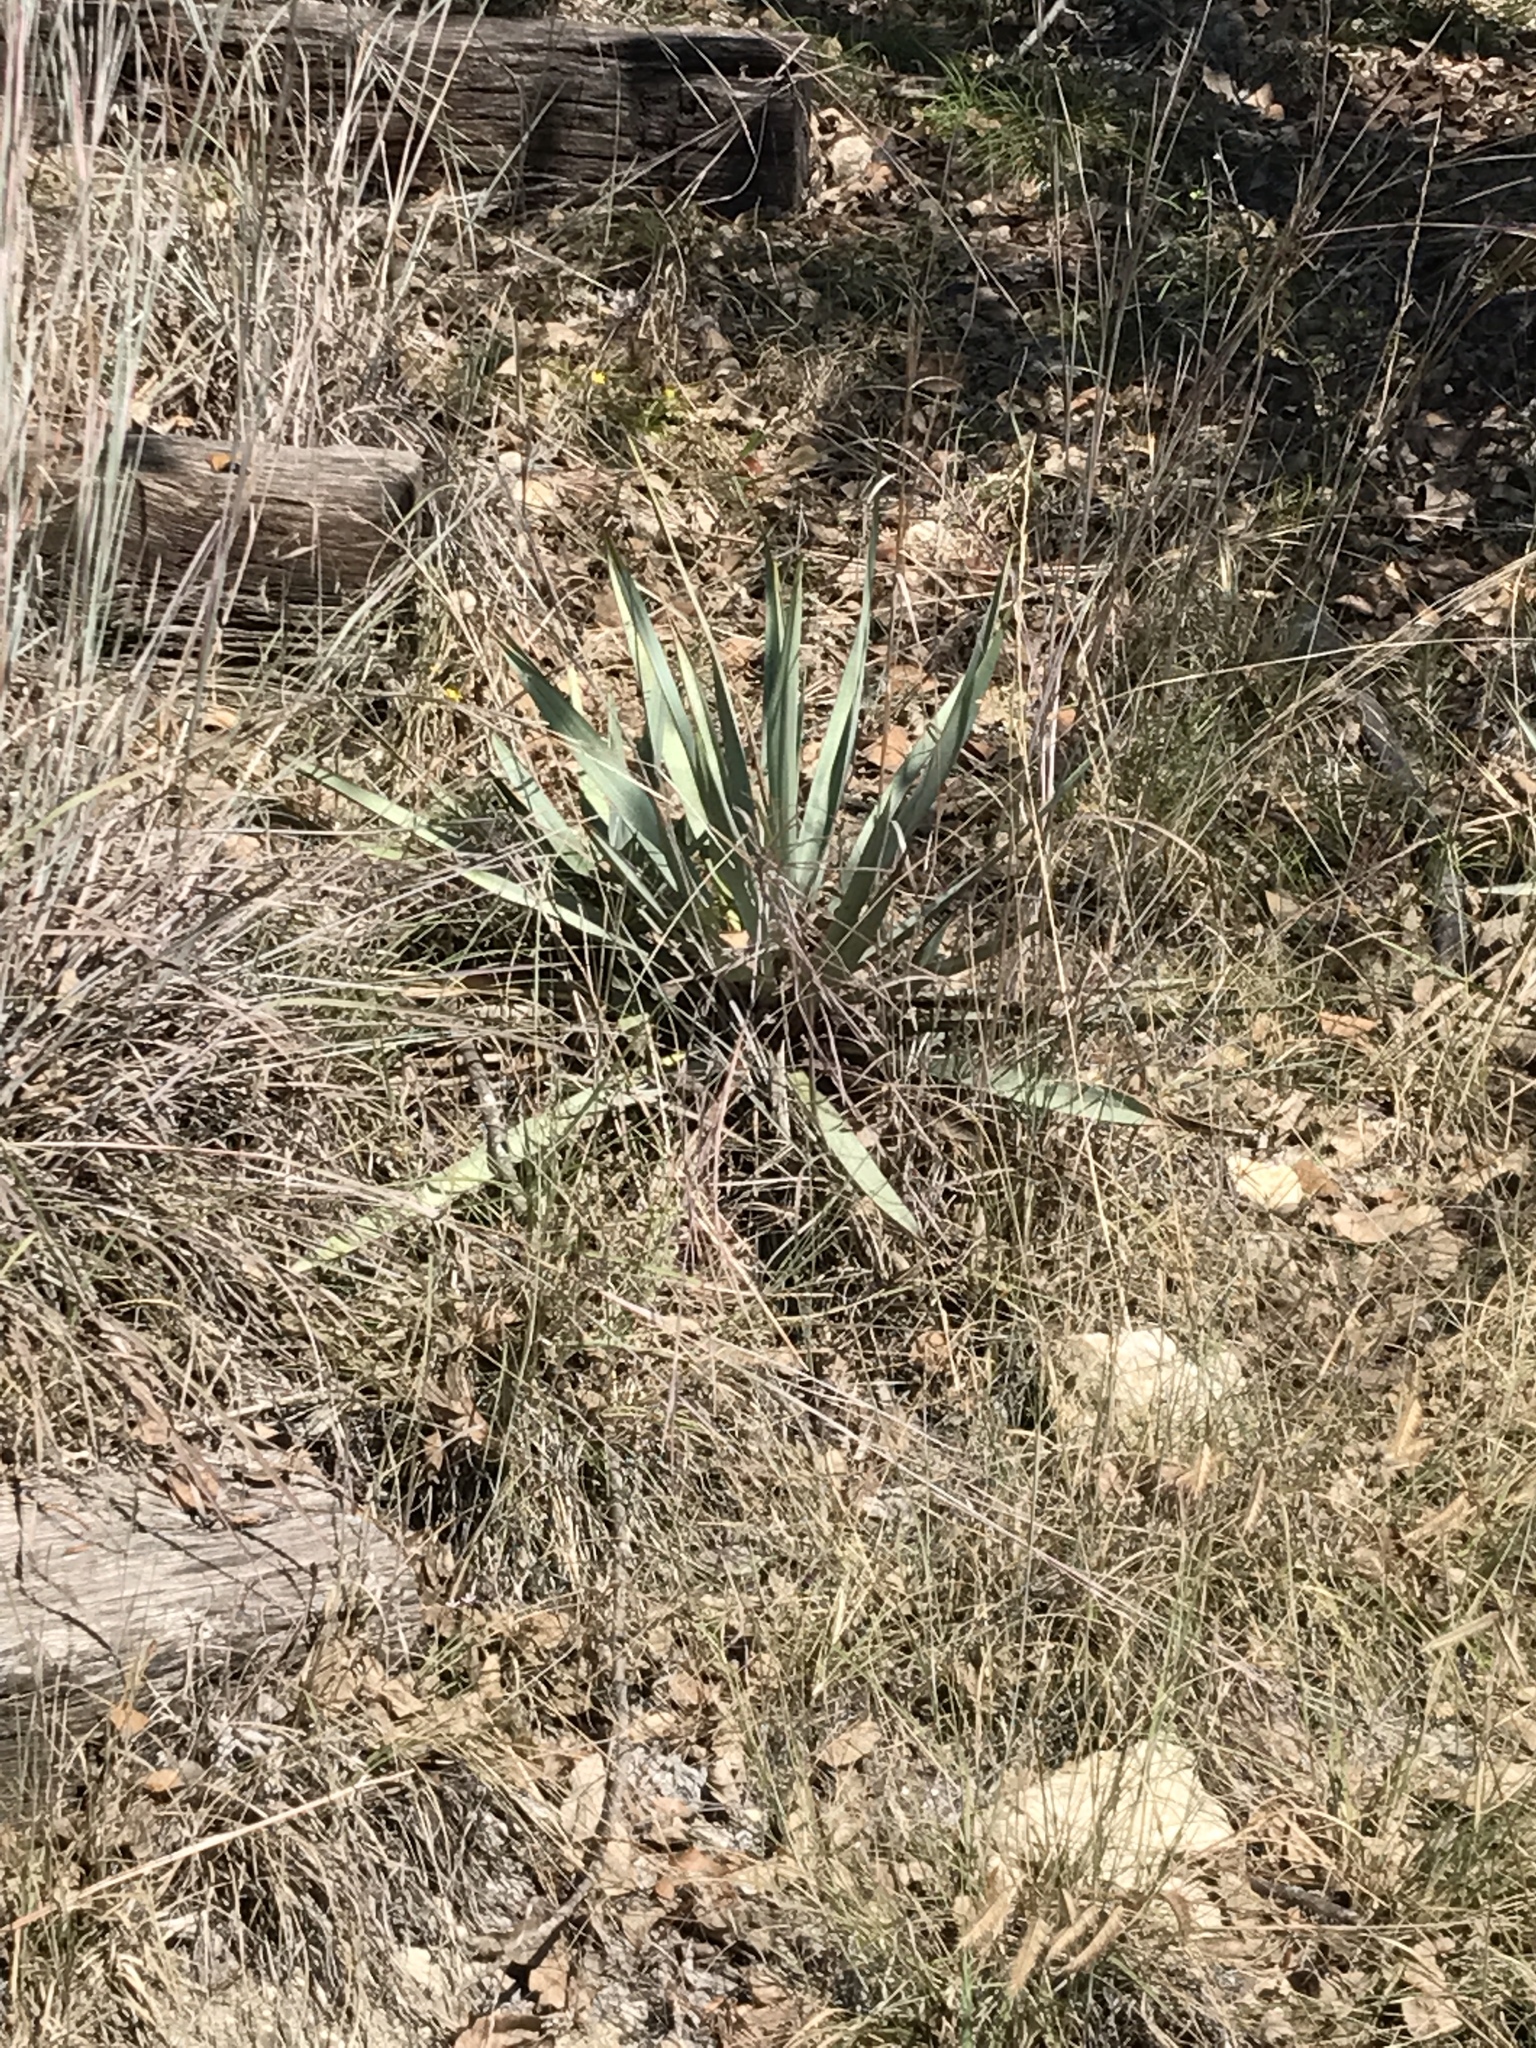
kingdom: Plantae
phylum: Tracheophyta
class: Liliopsida
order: Asparagales
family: Asparagaceae
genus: Yucca
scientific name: Yucca pallida
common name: Pale leaf yucca
